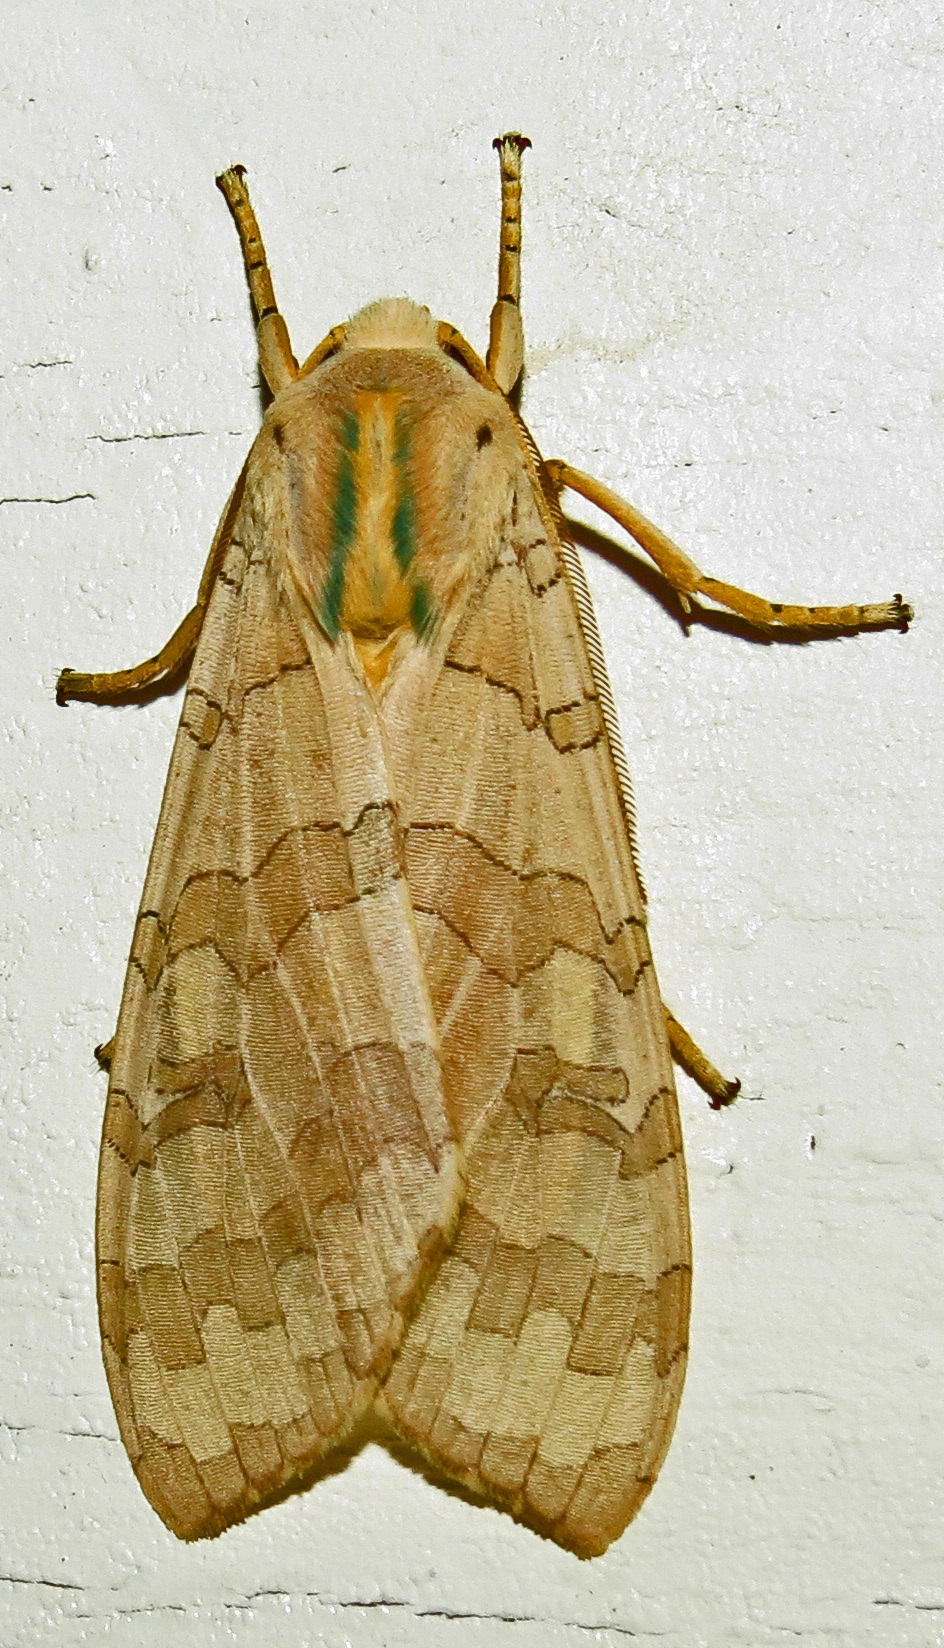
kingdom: Animalia
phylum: Arthropoda
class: Insecta
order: Lepidoptera
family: Erebidae
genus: Halysidota
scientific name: Halysidota
